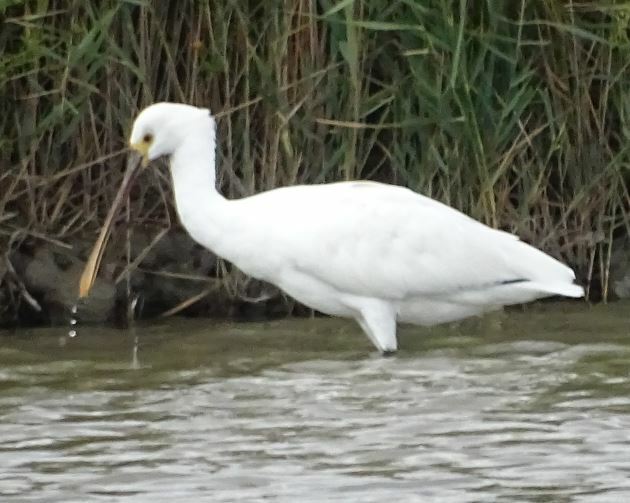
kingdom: Animalia
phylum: Chordata
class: Aves
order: Pelecaniformes
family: Threskiornithidae
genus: Platalea
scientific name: Platalea leucorodia
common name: Eurasian spoonbill
